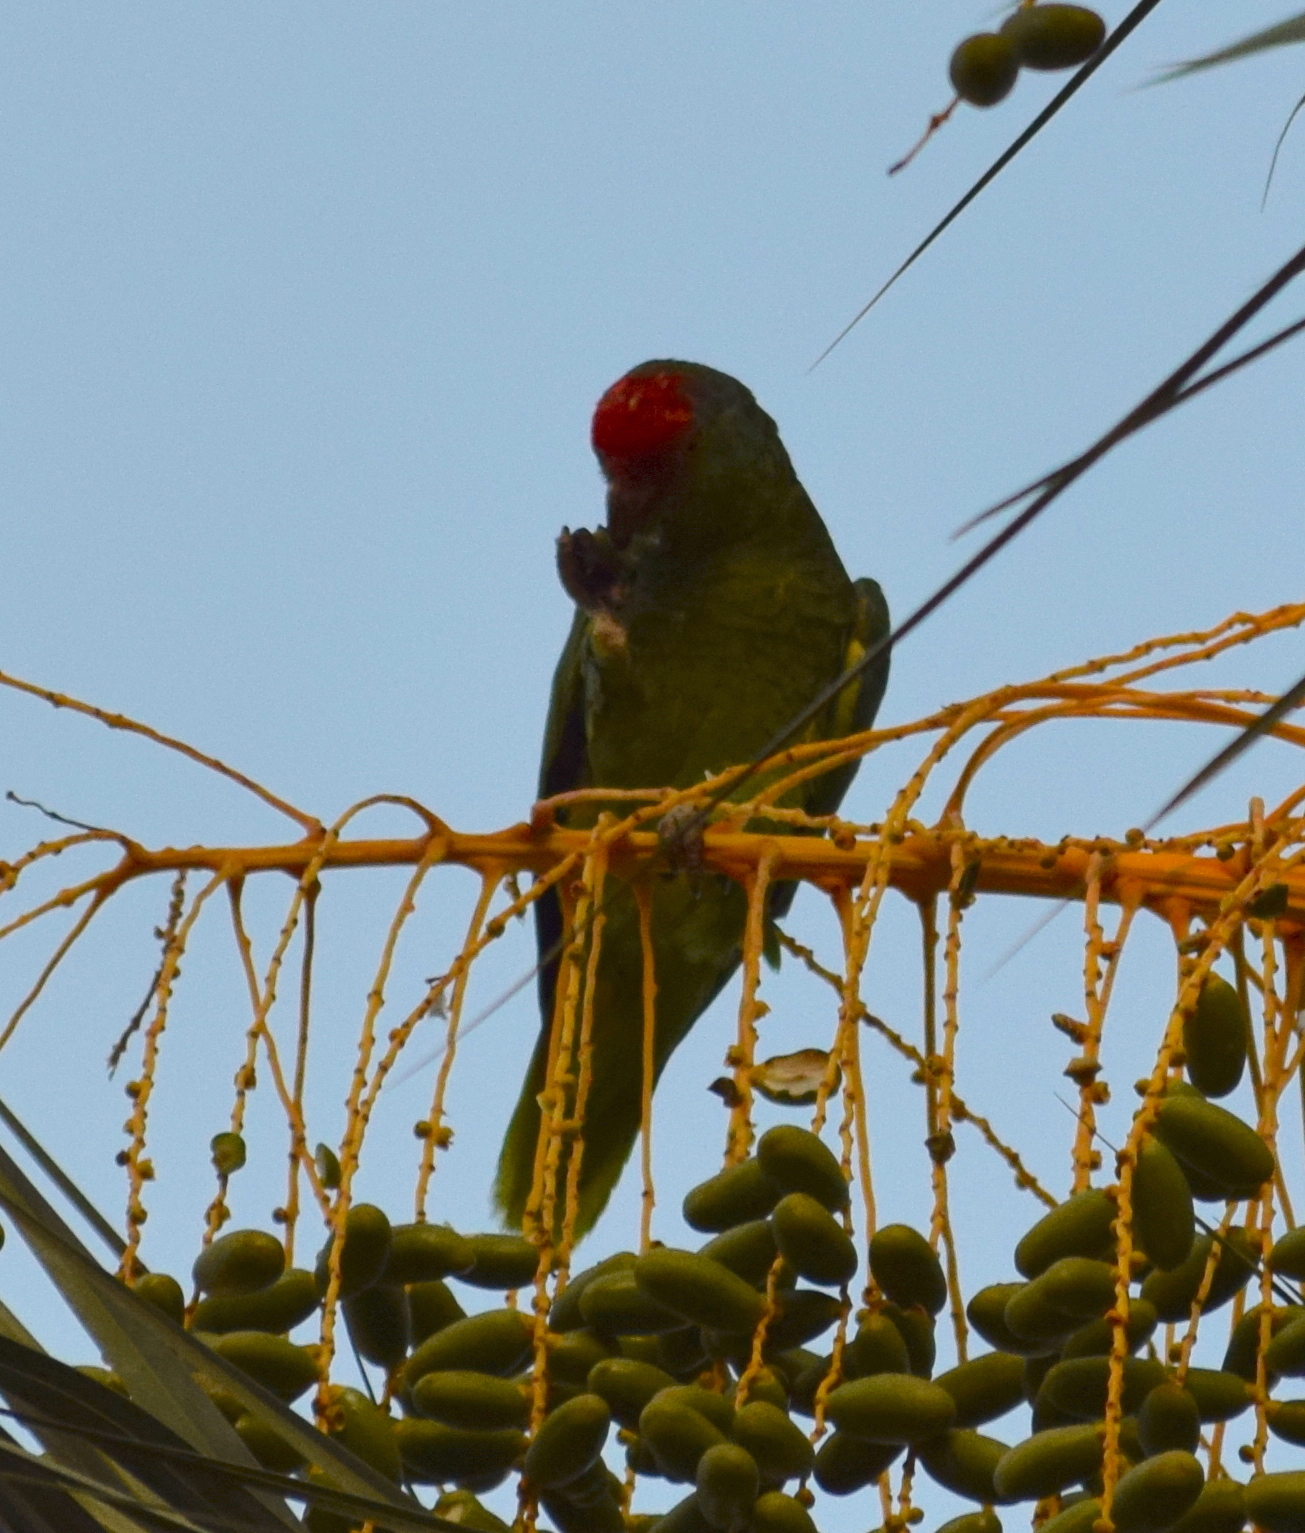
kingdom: Animalia
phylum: Chordata
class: Aves
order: Psittaciformes
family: Psittacidae
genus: Amazona
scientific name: Amazona viridigenalis
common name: Red-crowned amazon
